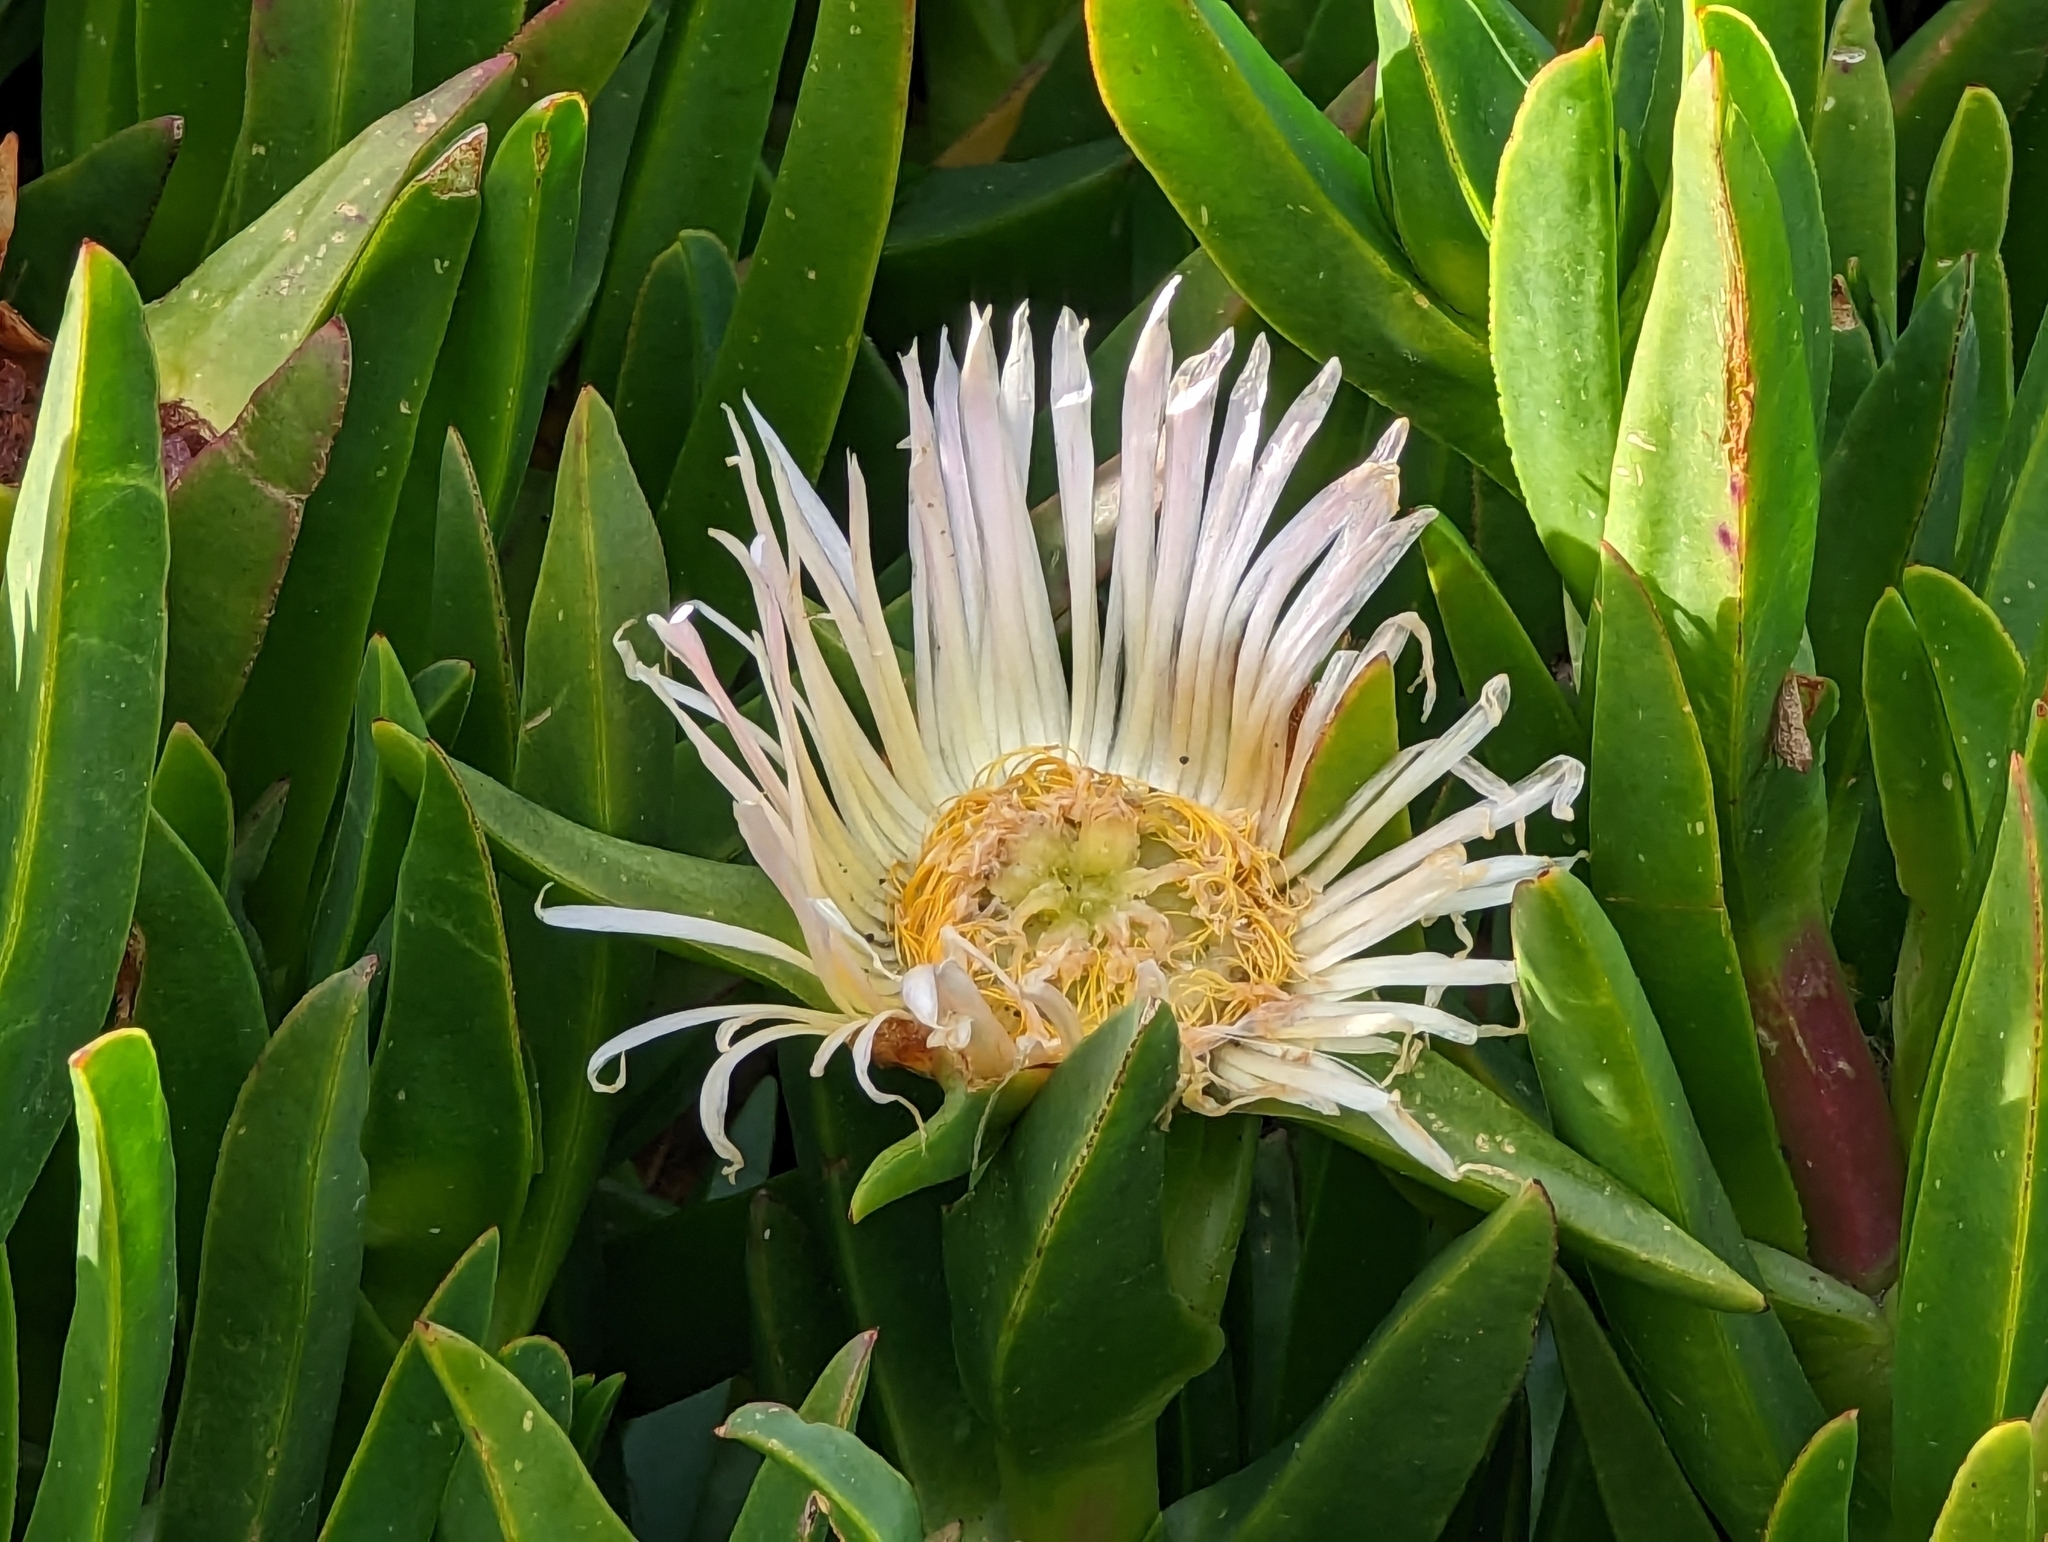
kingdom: Plantae
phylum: Tracheophyta
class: Magnoliopsida
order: Caryophyllales
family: Aizoaceae
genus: Carpobrotus
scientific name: Carpobrotus edulis
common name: Hottentot-fig
